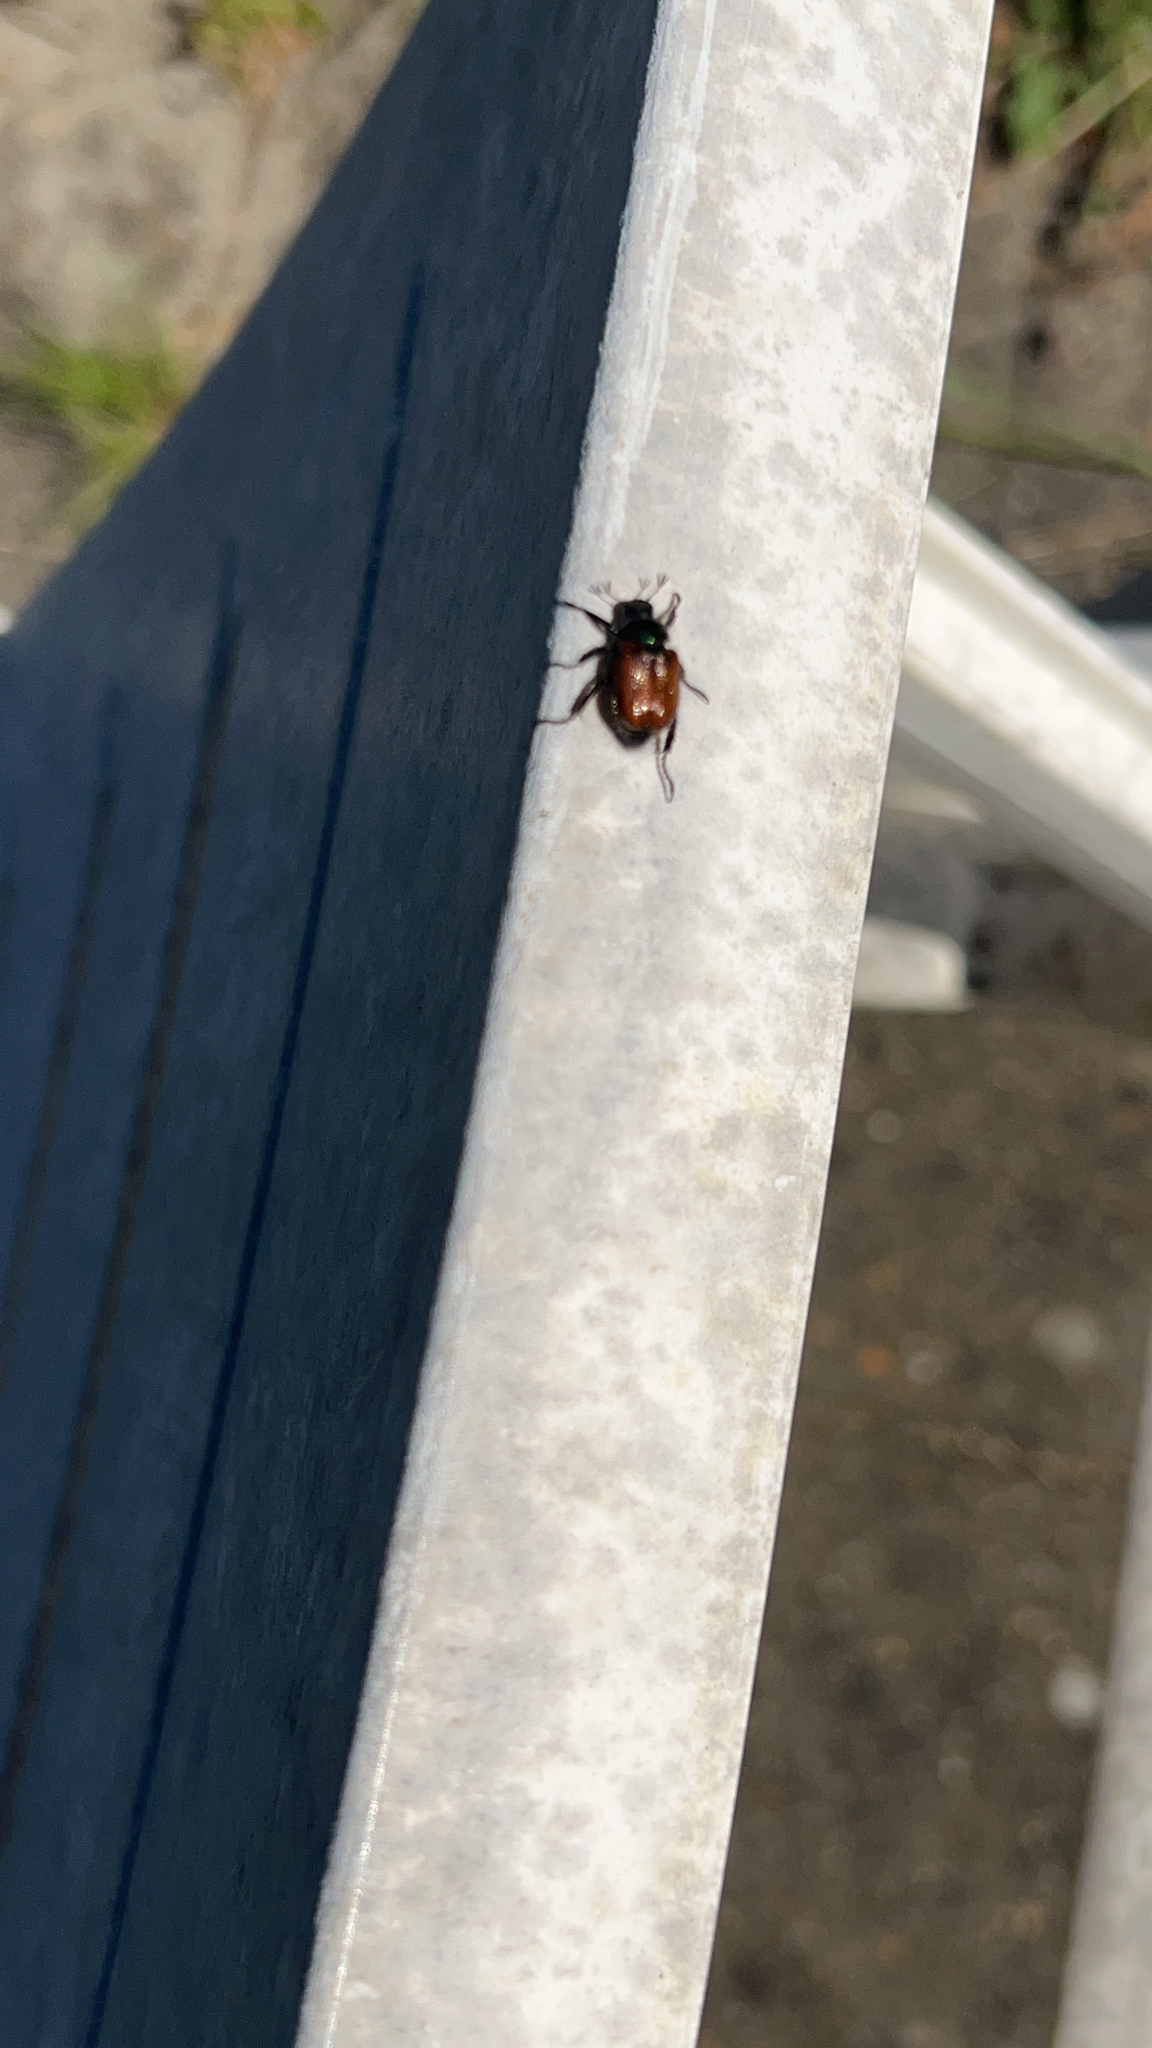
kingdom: Animalia
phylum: Arthropoda
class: Insecta
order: Coleoptera
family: Scarabaeidae
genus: Phyllopertha
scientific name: Phyllopertha horticola
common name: Garden chafer
